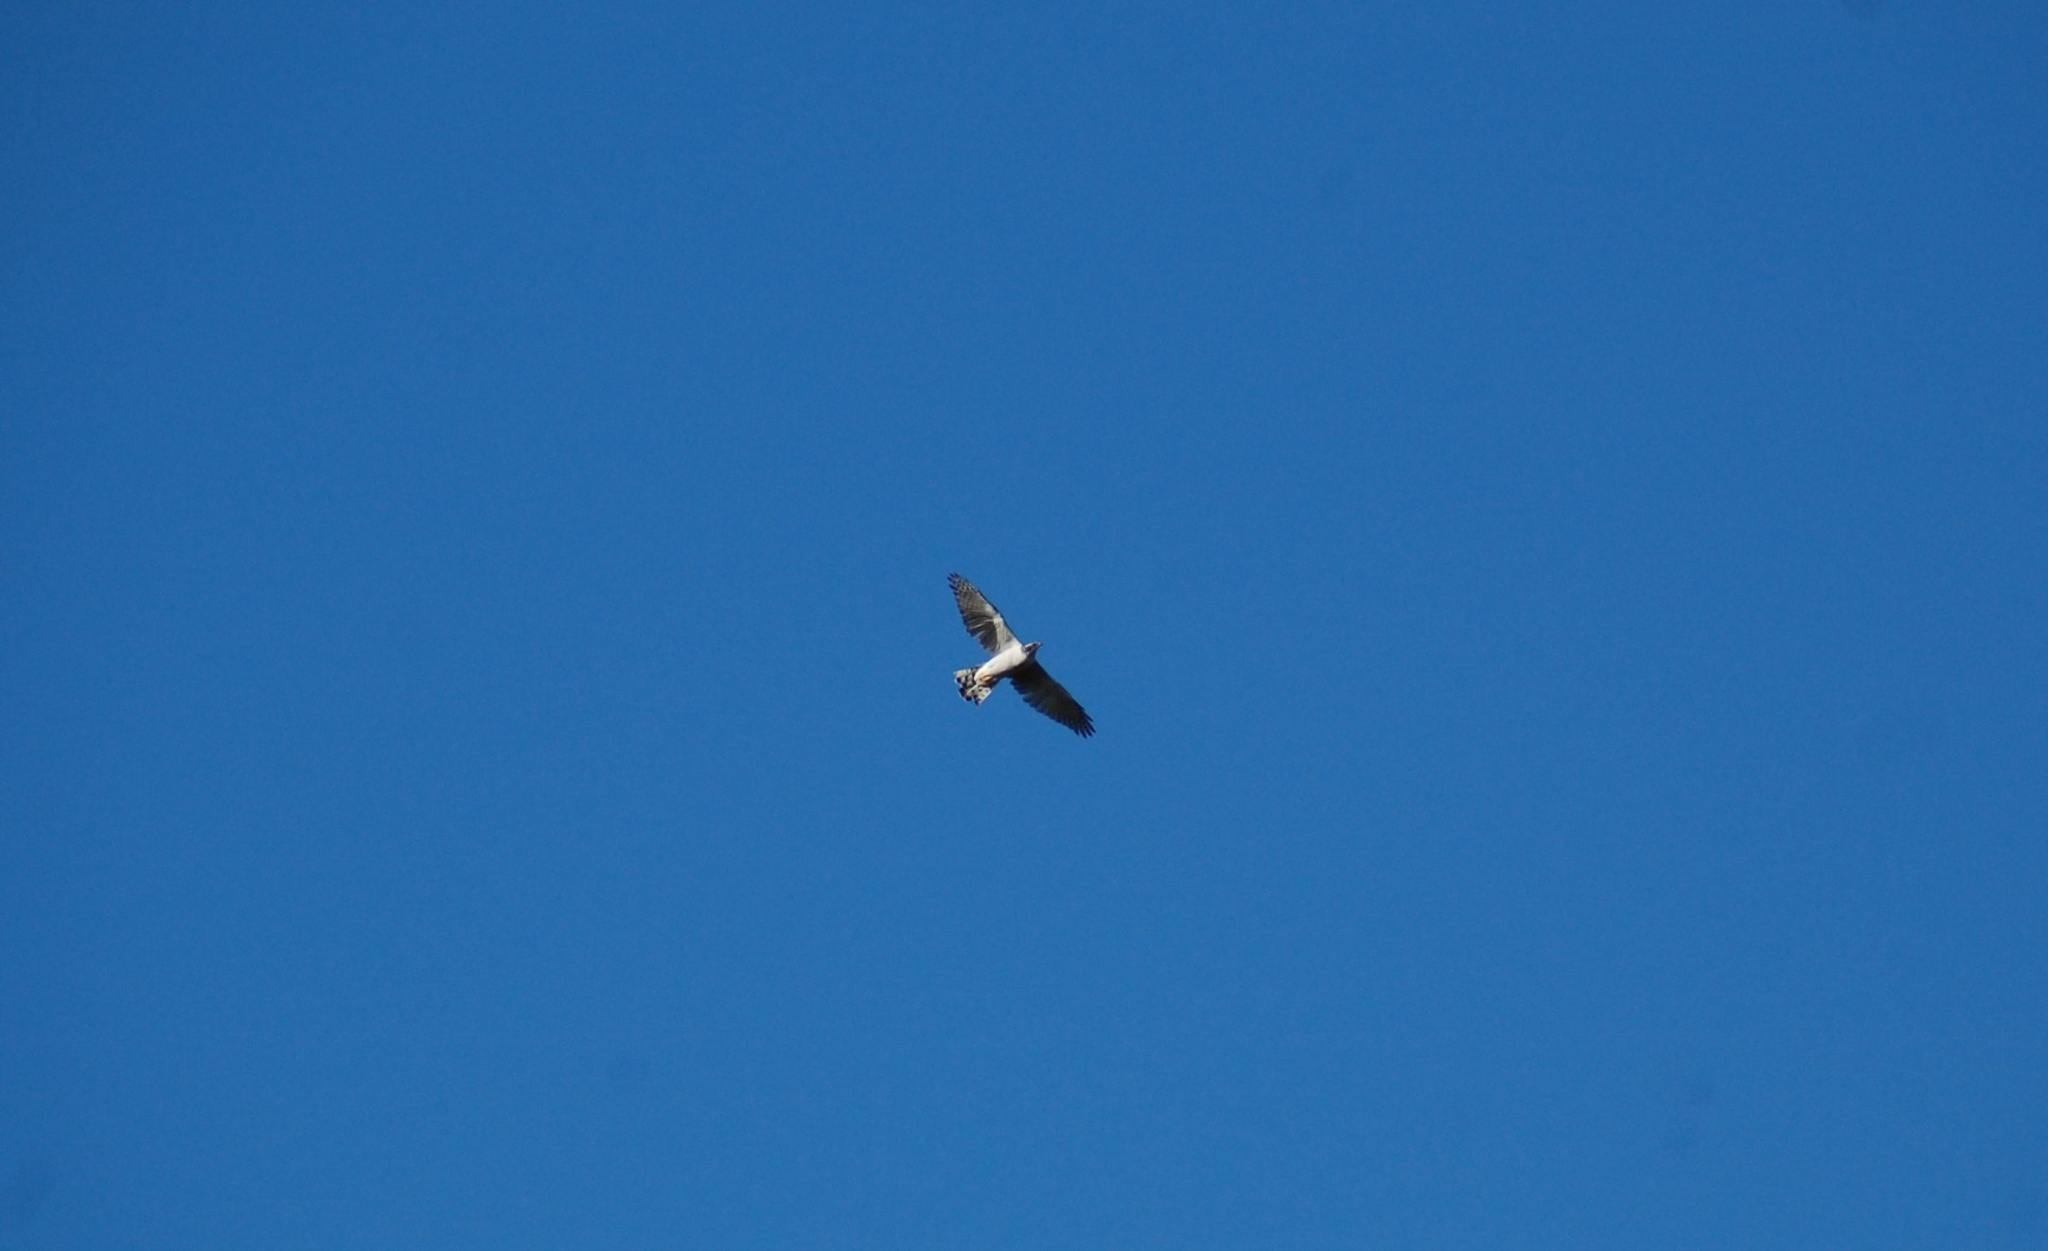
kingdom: Animalia
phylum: Chordata
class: Aves
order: Accipitriformes
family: Accipitridae
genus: Accipiter
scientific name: Accipiter gentilis
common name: Northern goshawk
